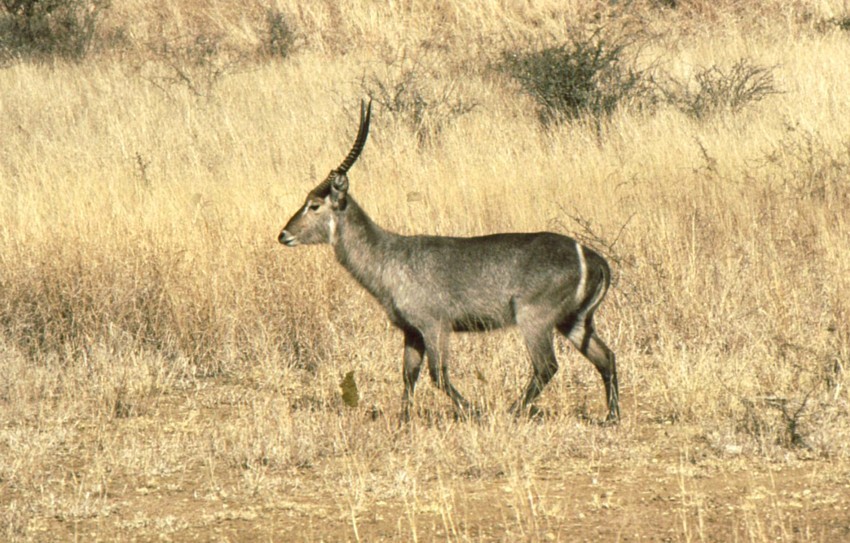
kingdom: Animalia
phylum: Chordata
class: Mammalia
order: Artiodactyla
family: Bovidae
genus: Kobus
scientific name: Kobus ellipsiprymnus
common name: Waterbuck
